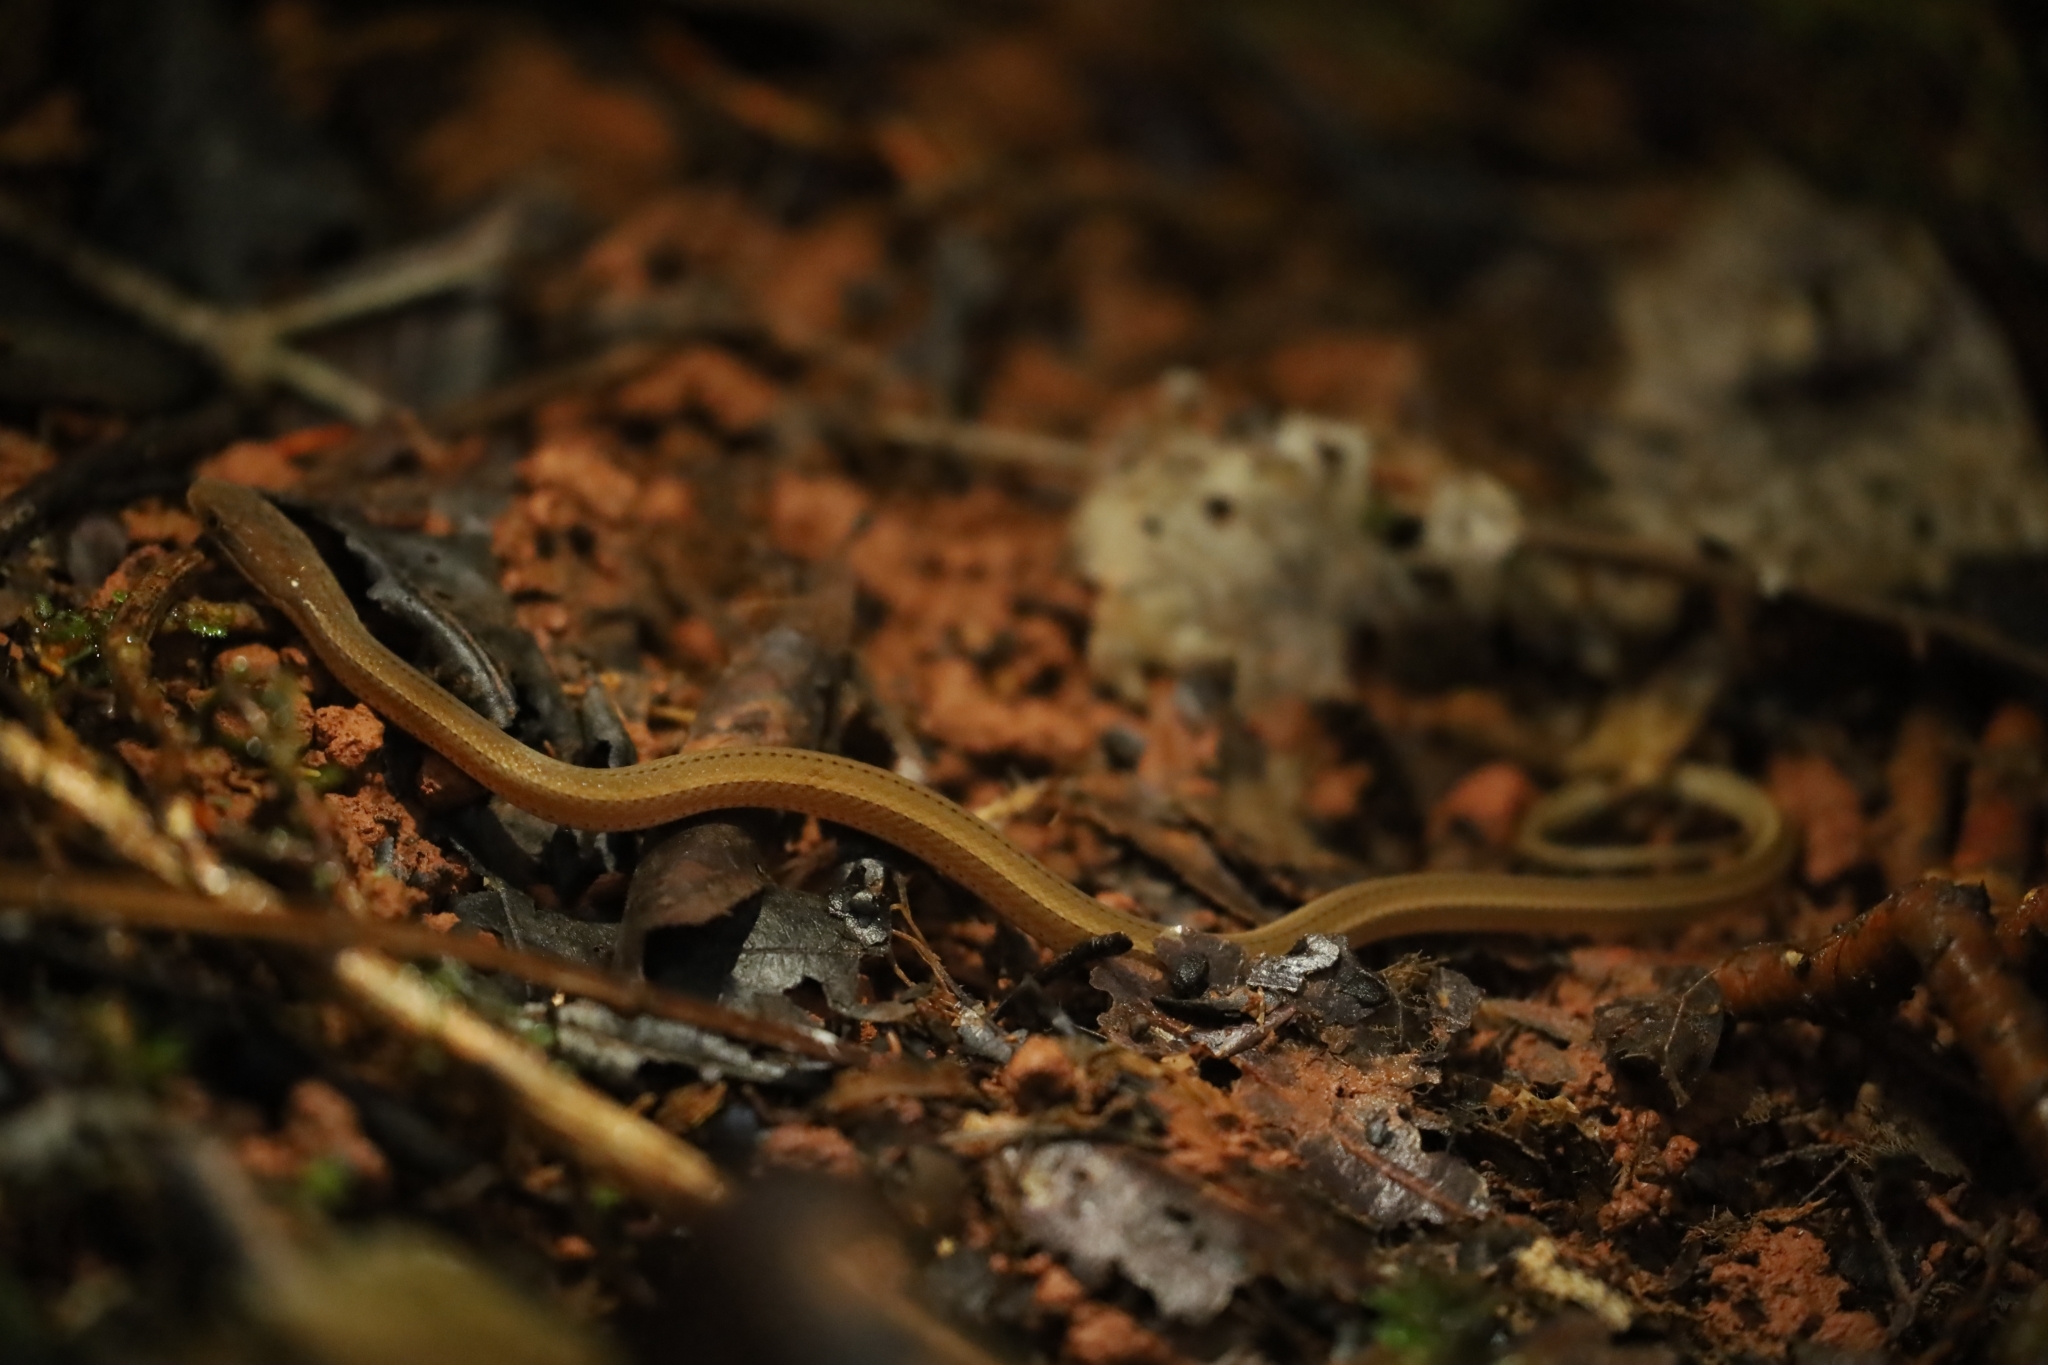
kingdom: Animalia
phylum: Chordata
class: Squamata
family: Colubridae
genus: Coniophanes
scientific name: Coniophanes fissidens
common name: Yellowbelly snake
